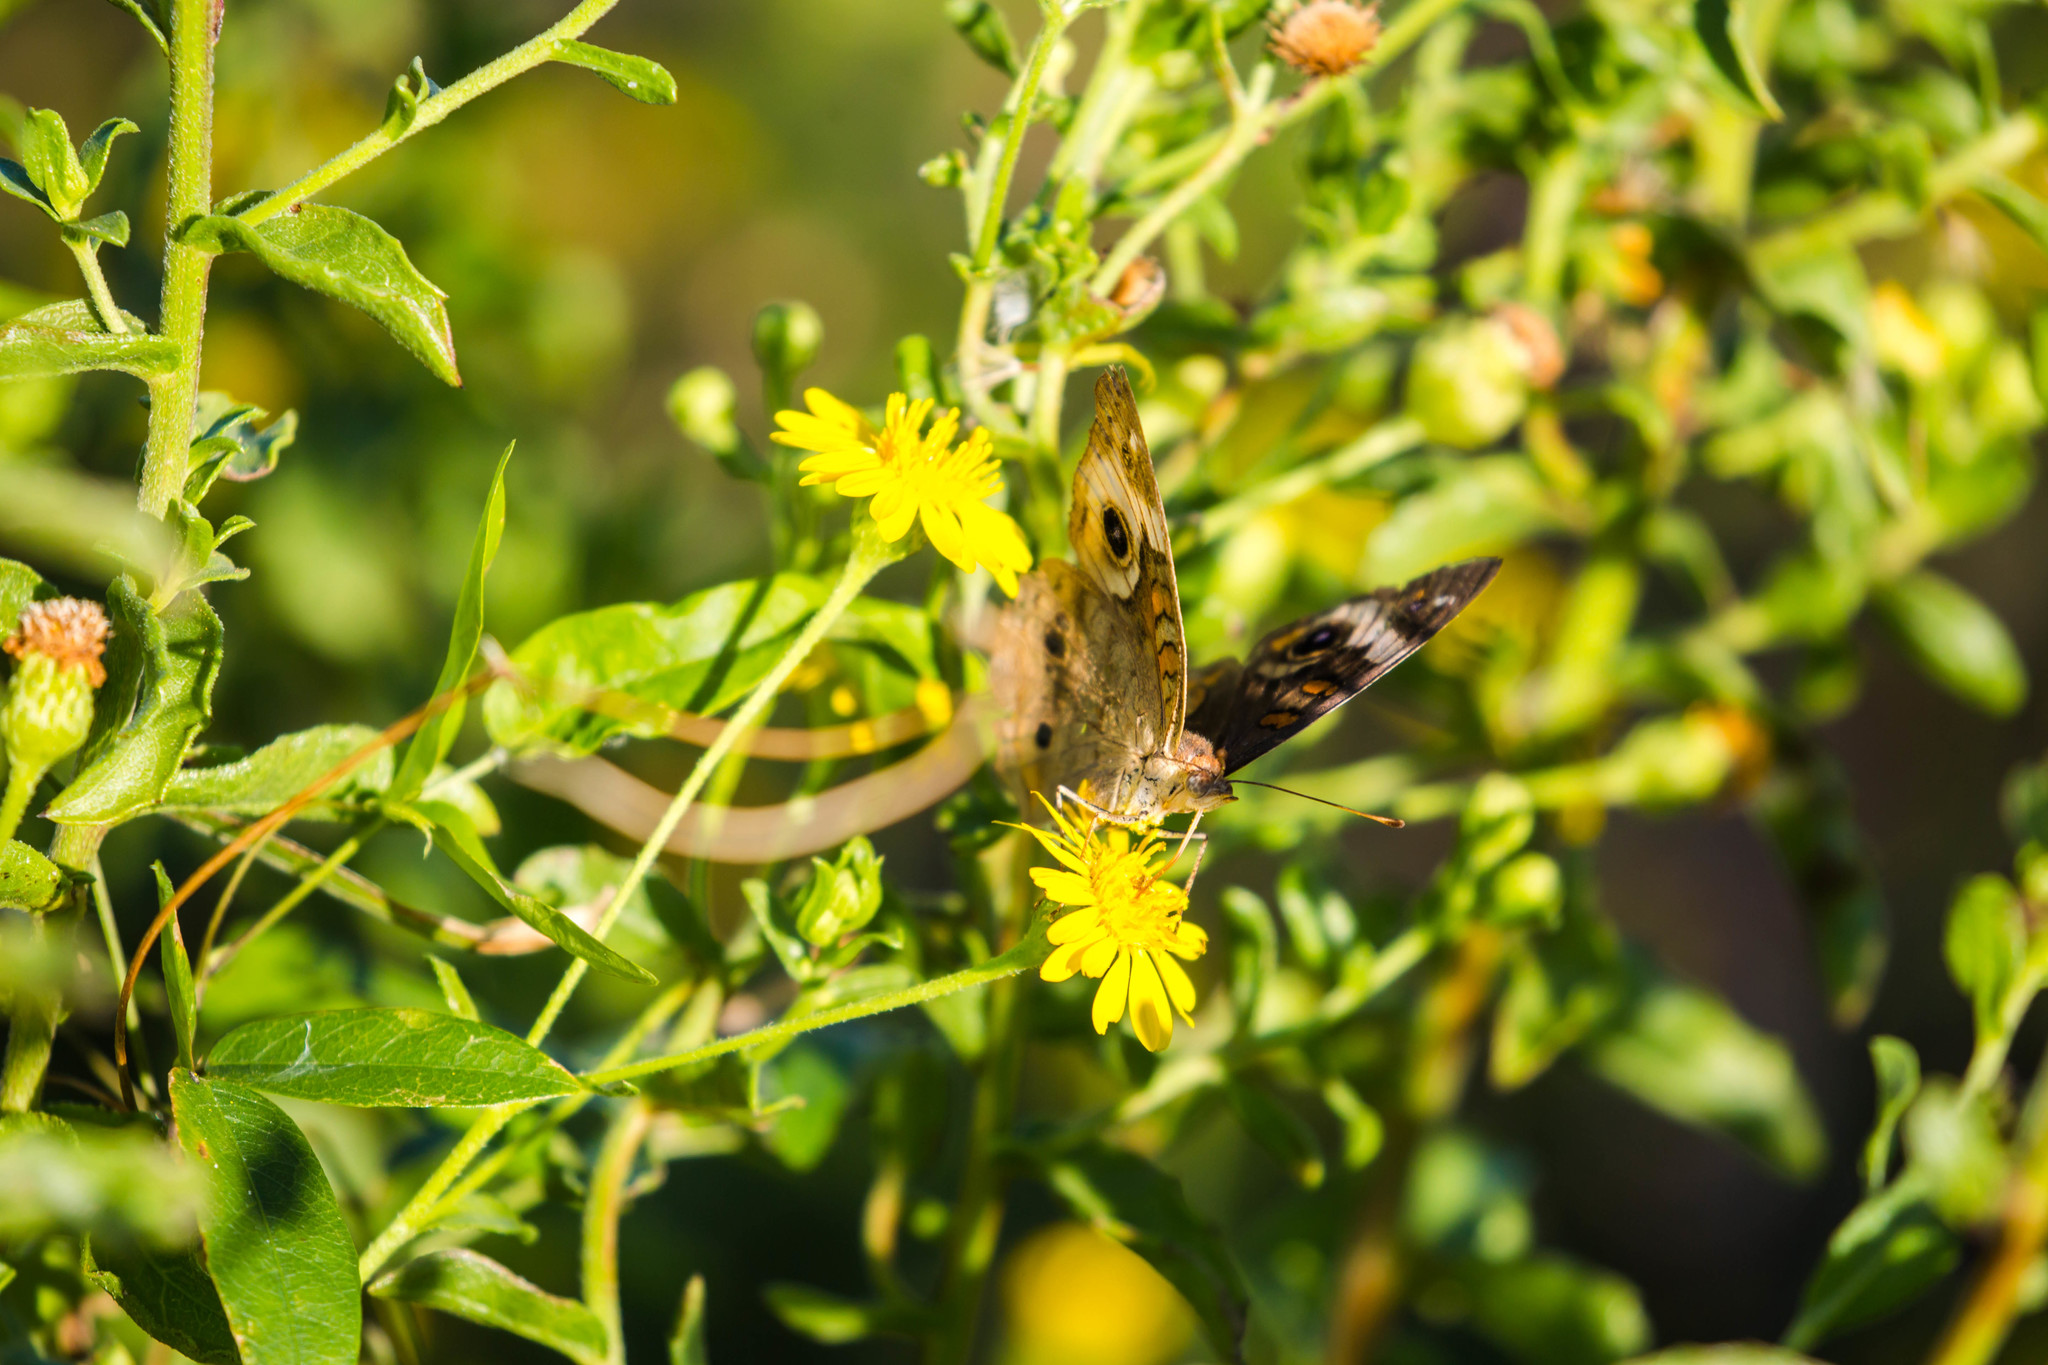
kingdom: Animalia
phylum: Arthropoda
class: Insecta
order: Lepidoptera
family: Nymphalidae
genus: Junonia
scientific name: Junonia coenia
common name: Common buckeye
